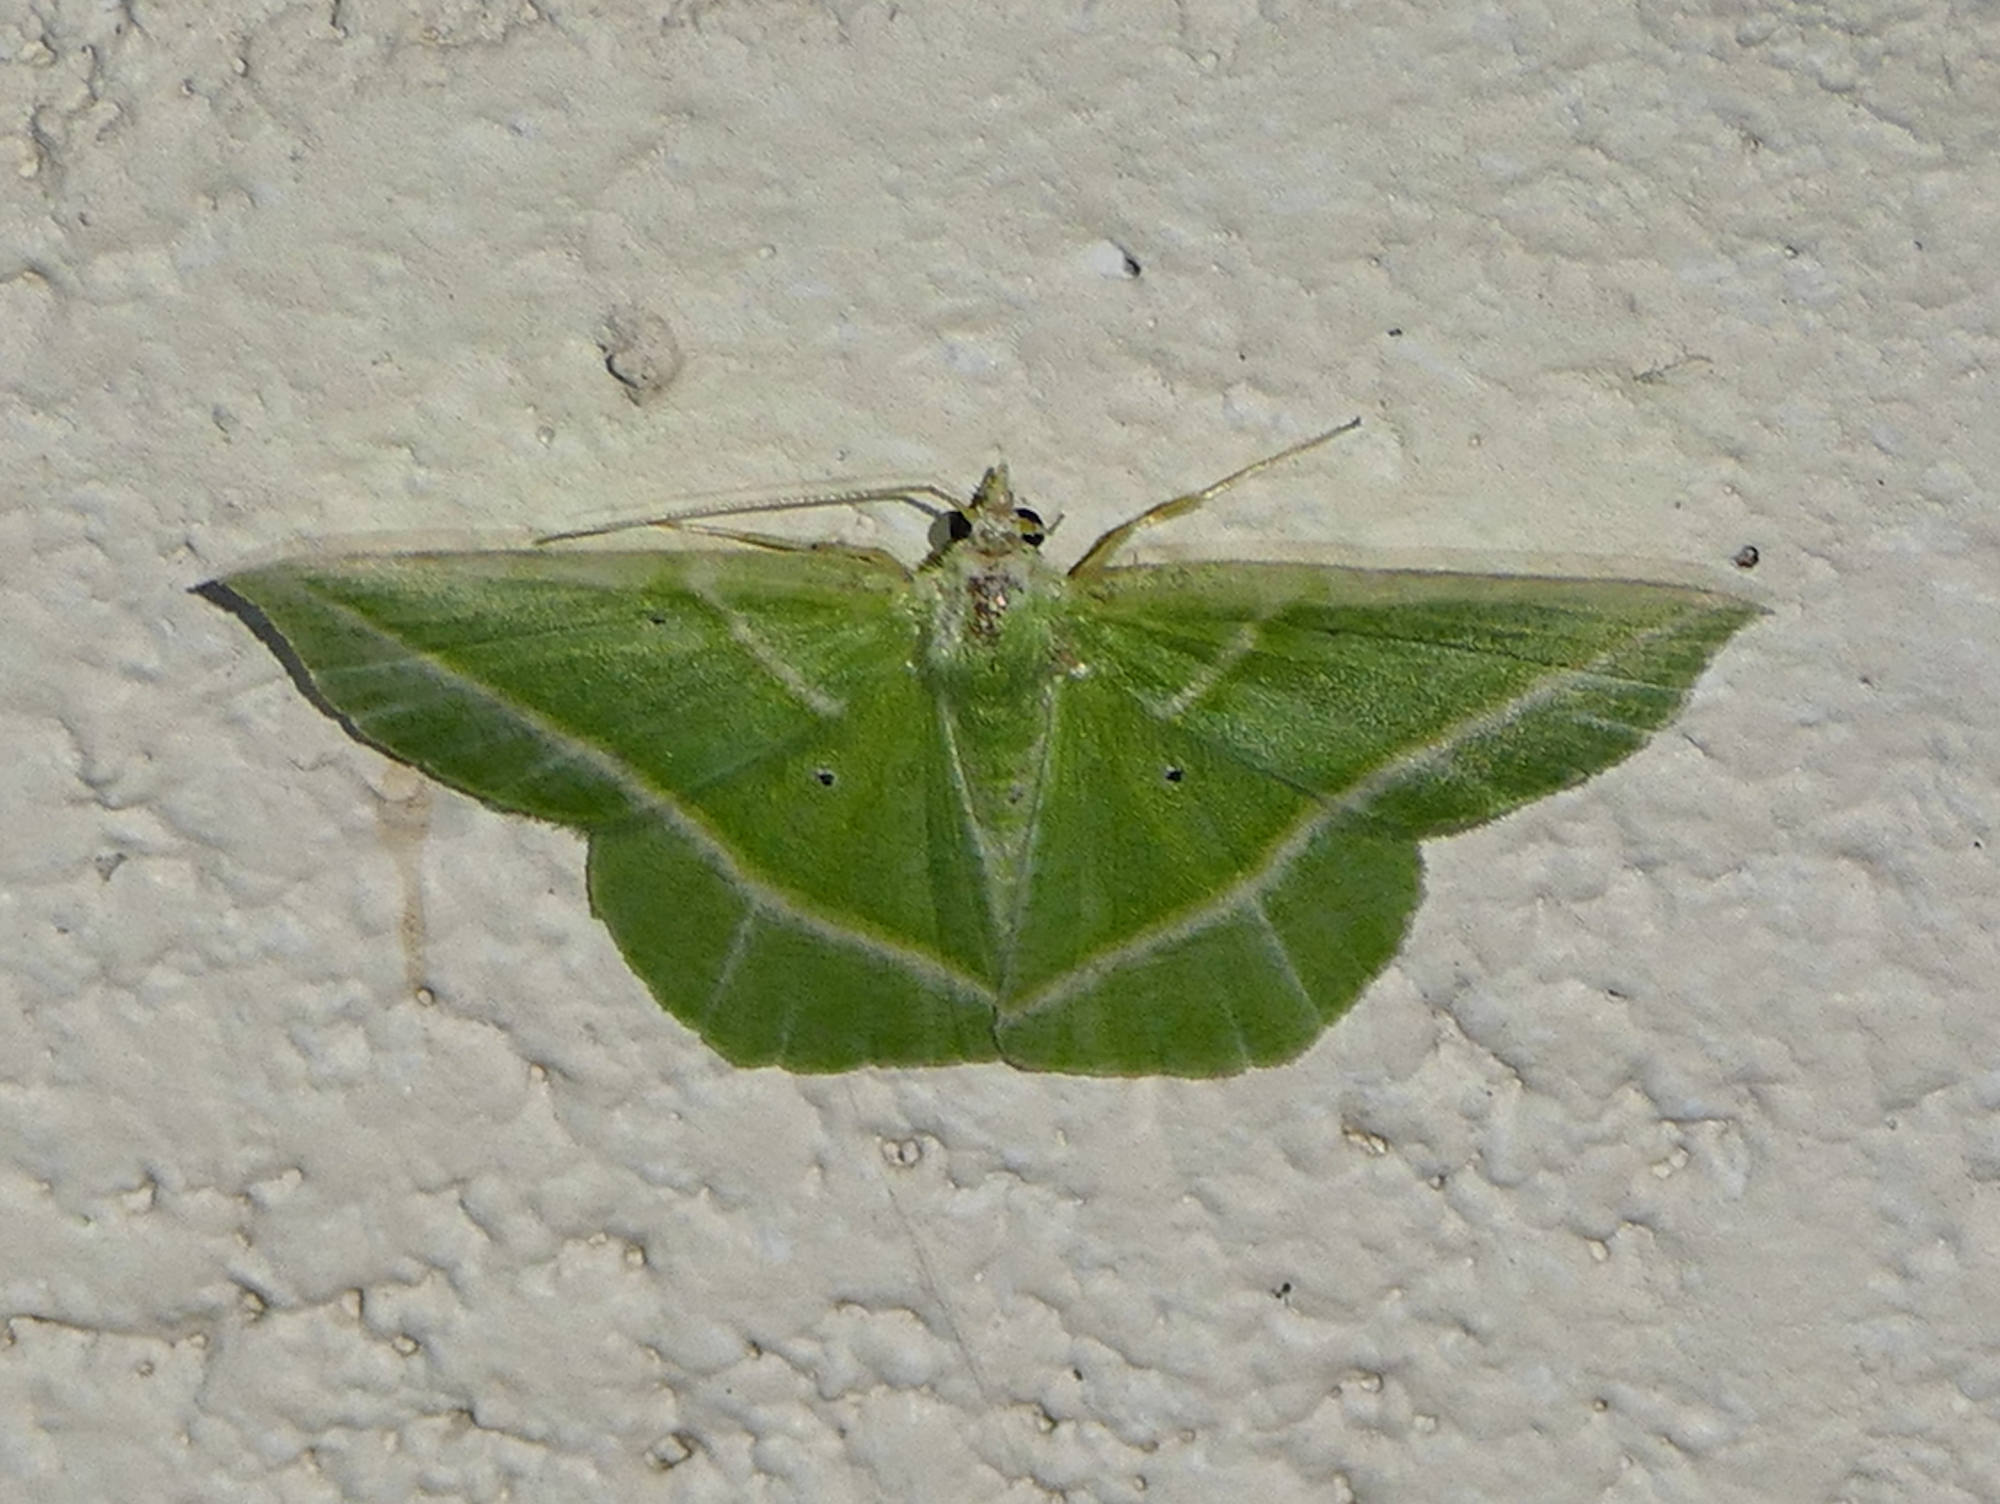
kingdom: Animalia
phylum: Arthropoda
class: Insecta
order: Lepidoptera
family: Geometridae
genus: Dichorda
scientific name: Dichorda iridaria
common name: Showy emerald
